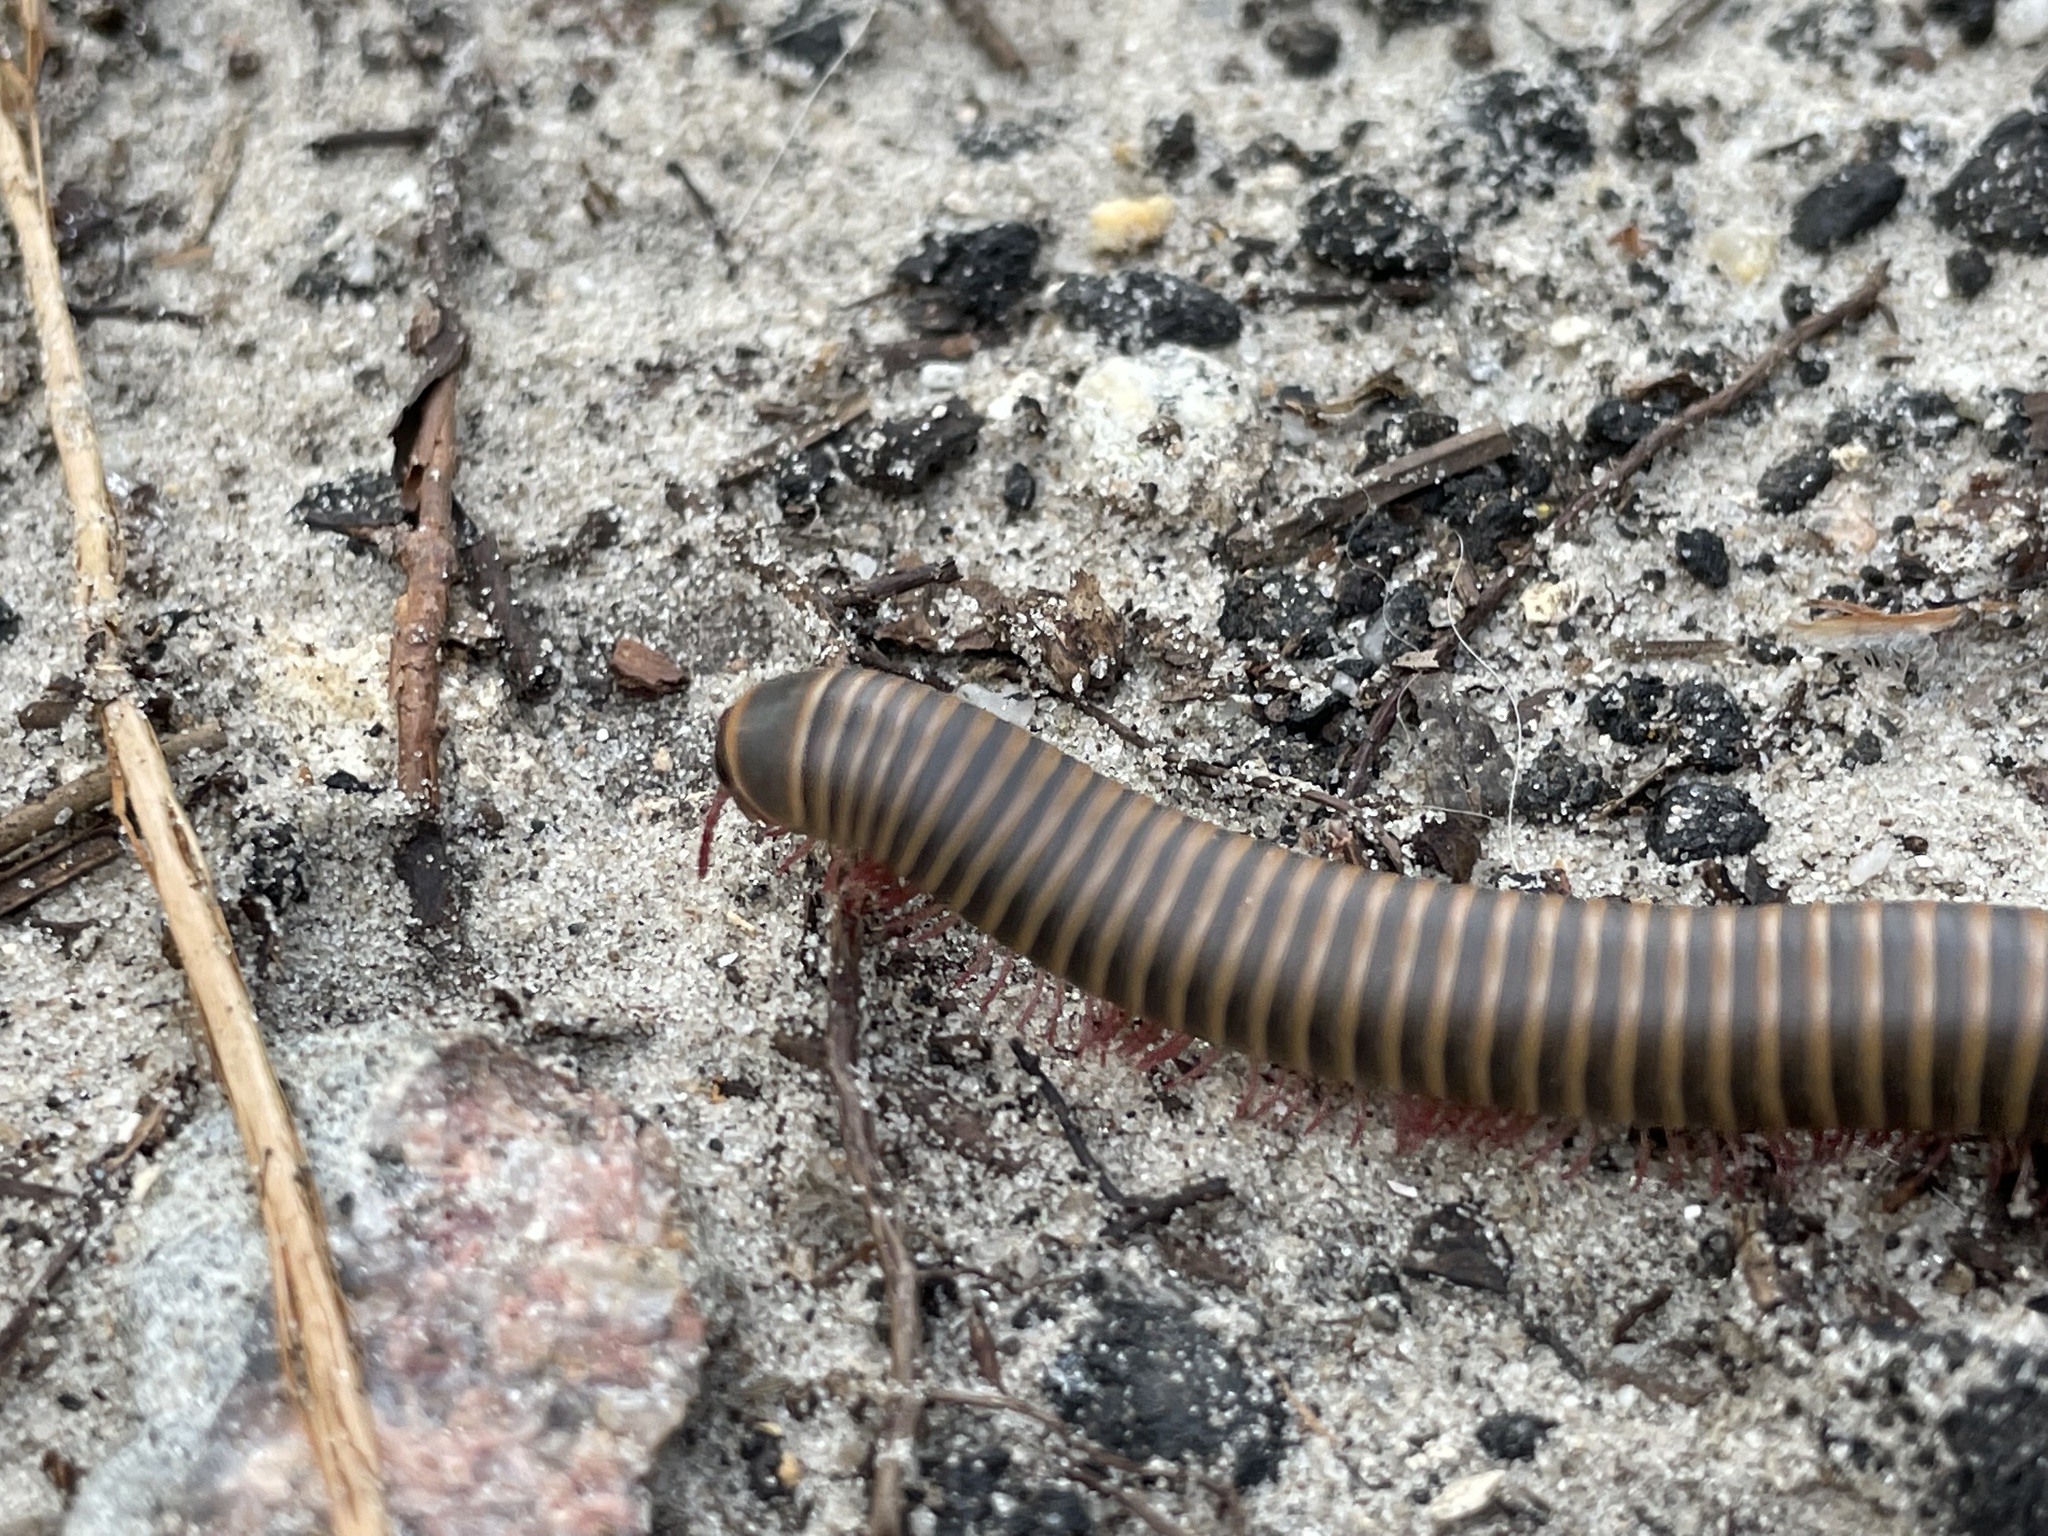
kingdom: Animalia
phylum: Arthropoda
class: Diplopoda
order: Spirobolida
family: Spirobolidae
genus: Narceus
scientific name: Narceus
